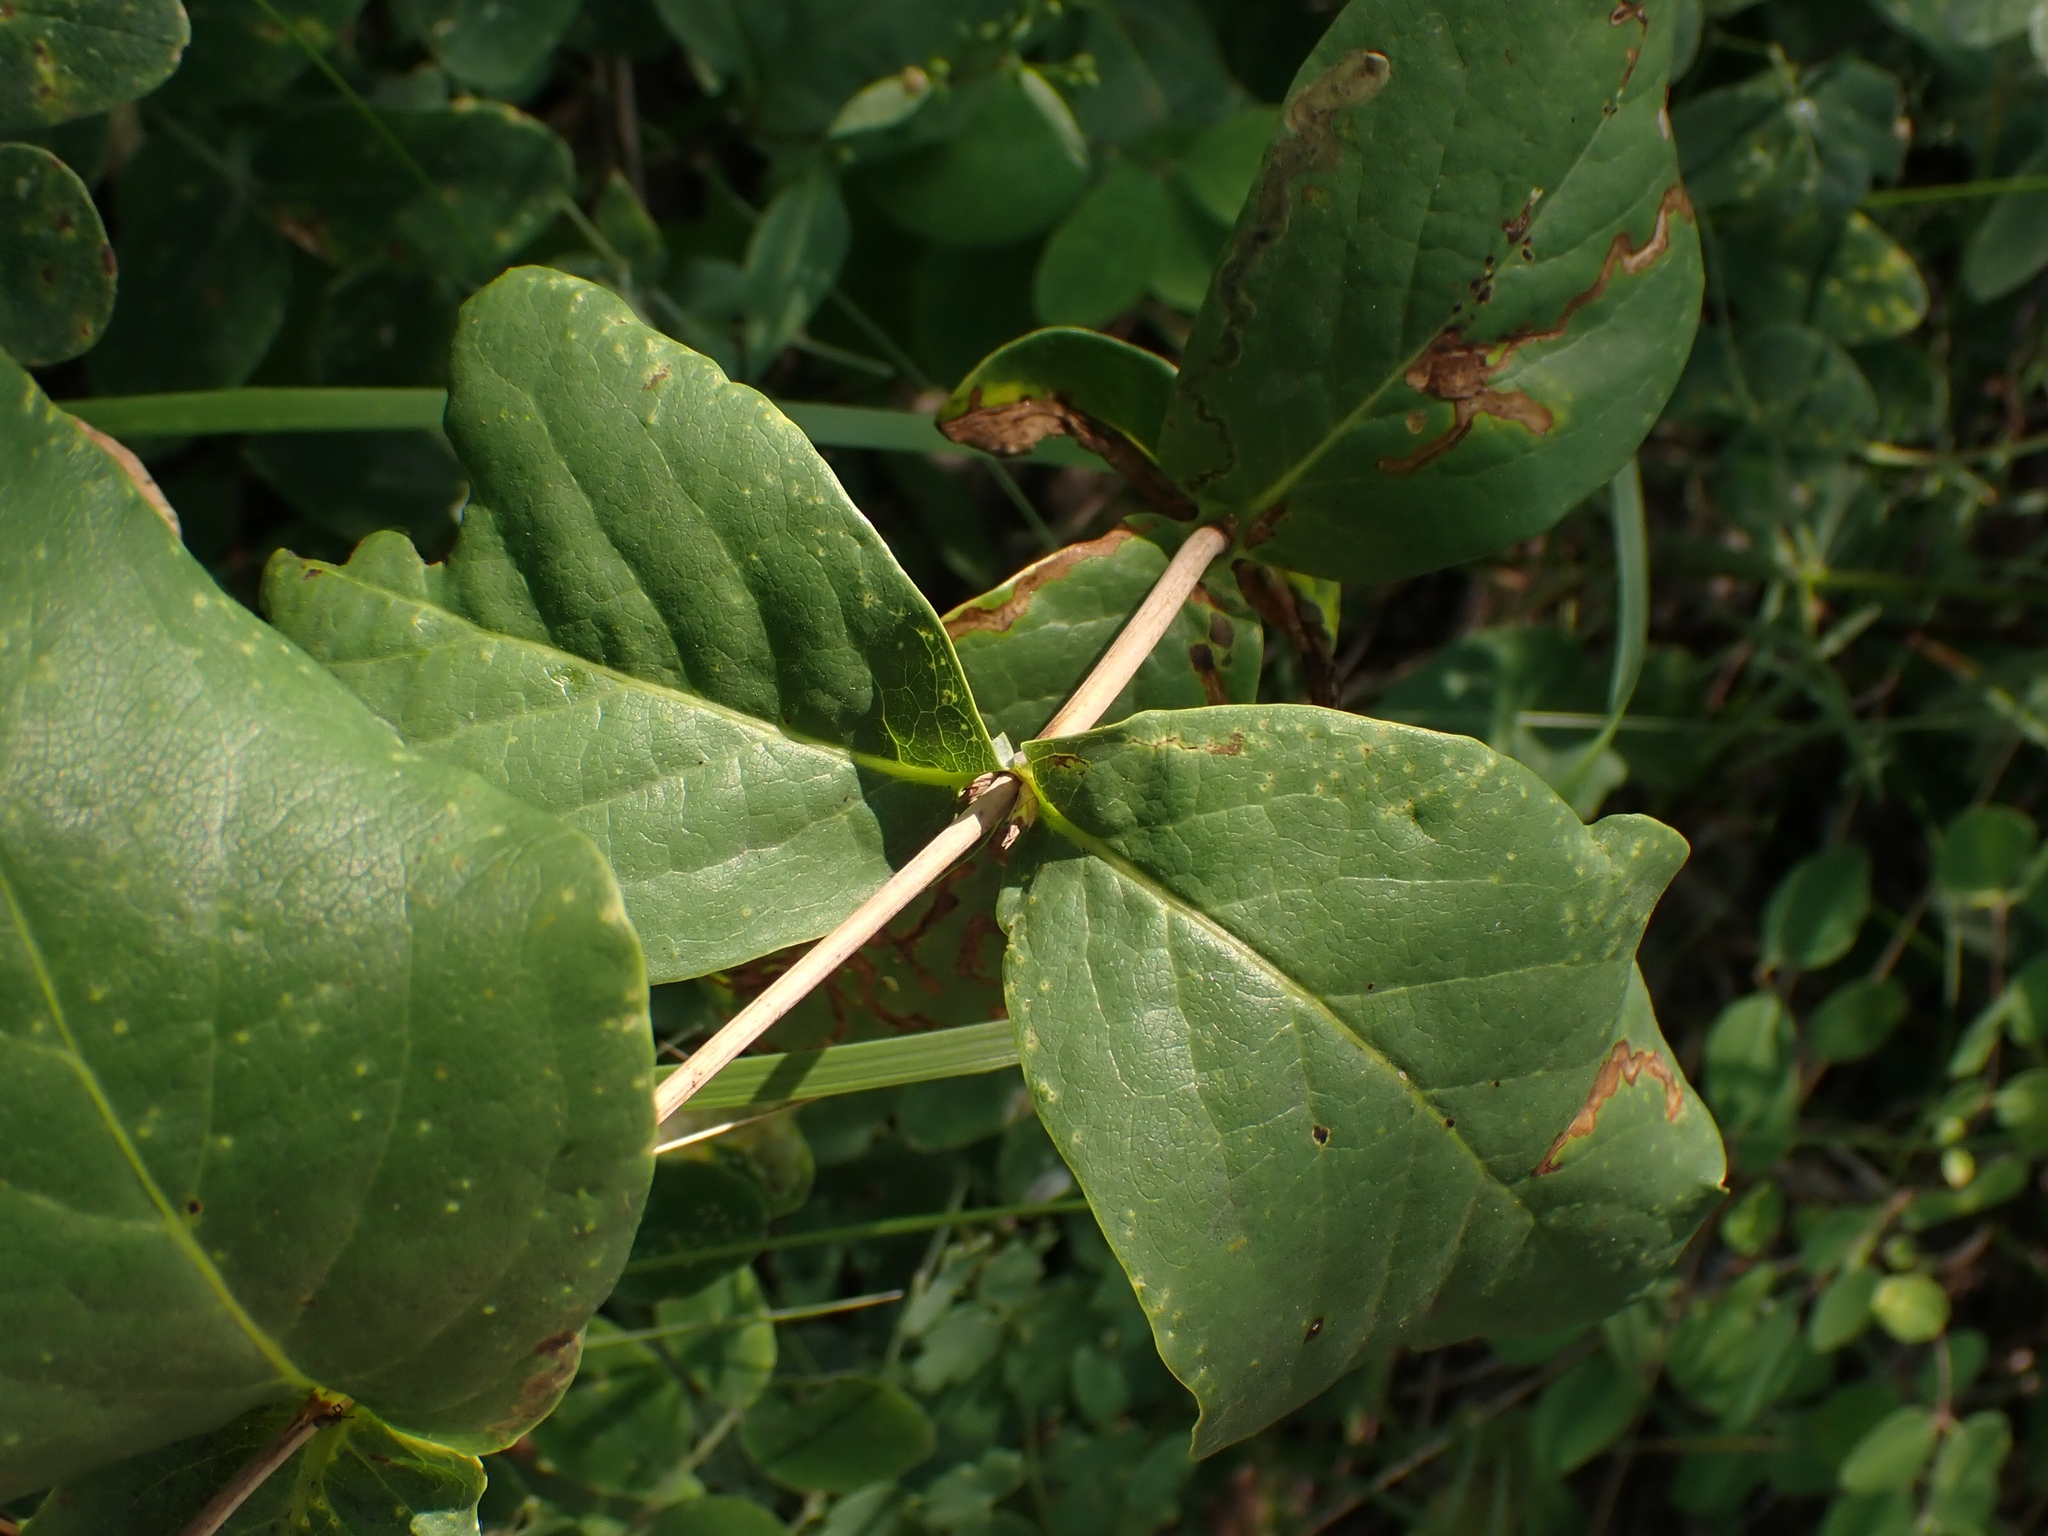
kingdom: Plantae
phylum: Tracheophyta
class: Magnoliopsida
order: Dipsacales
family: Caprifoliaceae
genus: Lonicera
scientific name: Lonicera dioica
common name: Limber honeysuckle
